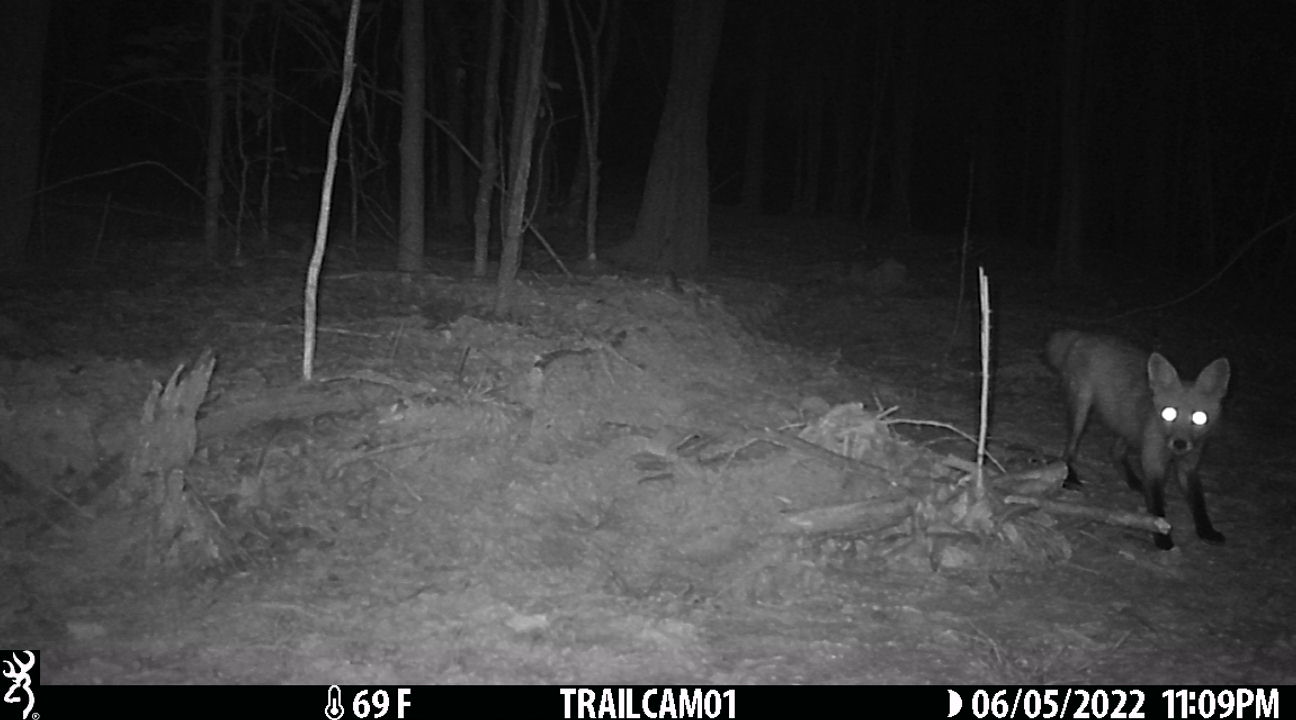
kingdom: Animalia
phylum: Chordata
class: Mammalia
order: Carnivora
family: Canidae
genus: Vulpes
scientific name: Vulpes vulpes
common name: Red fox
